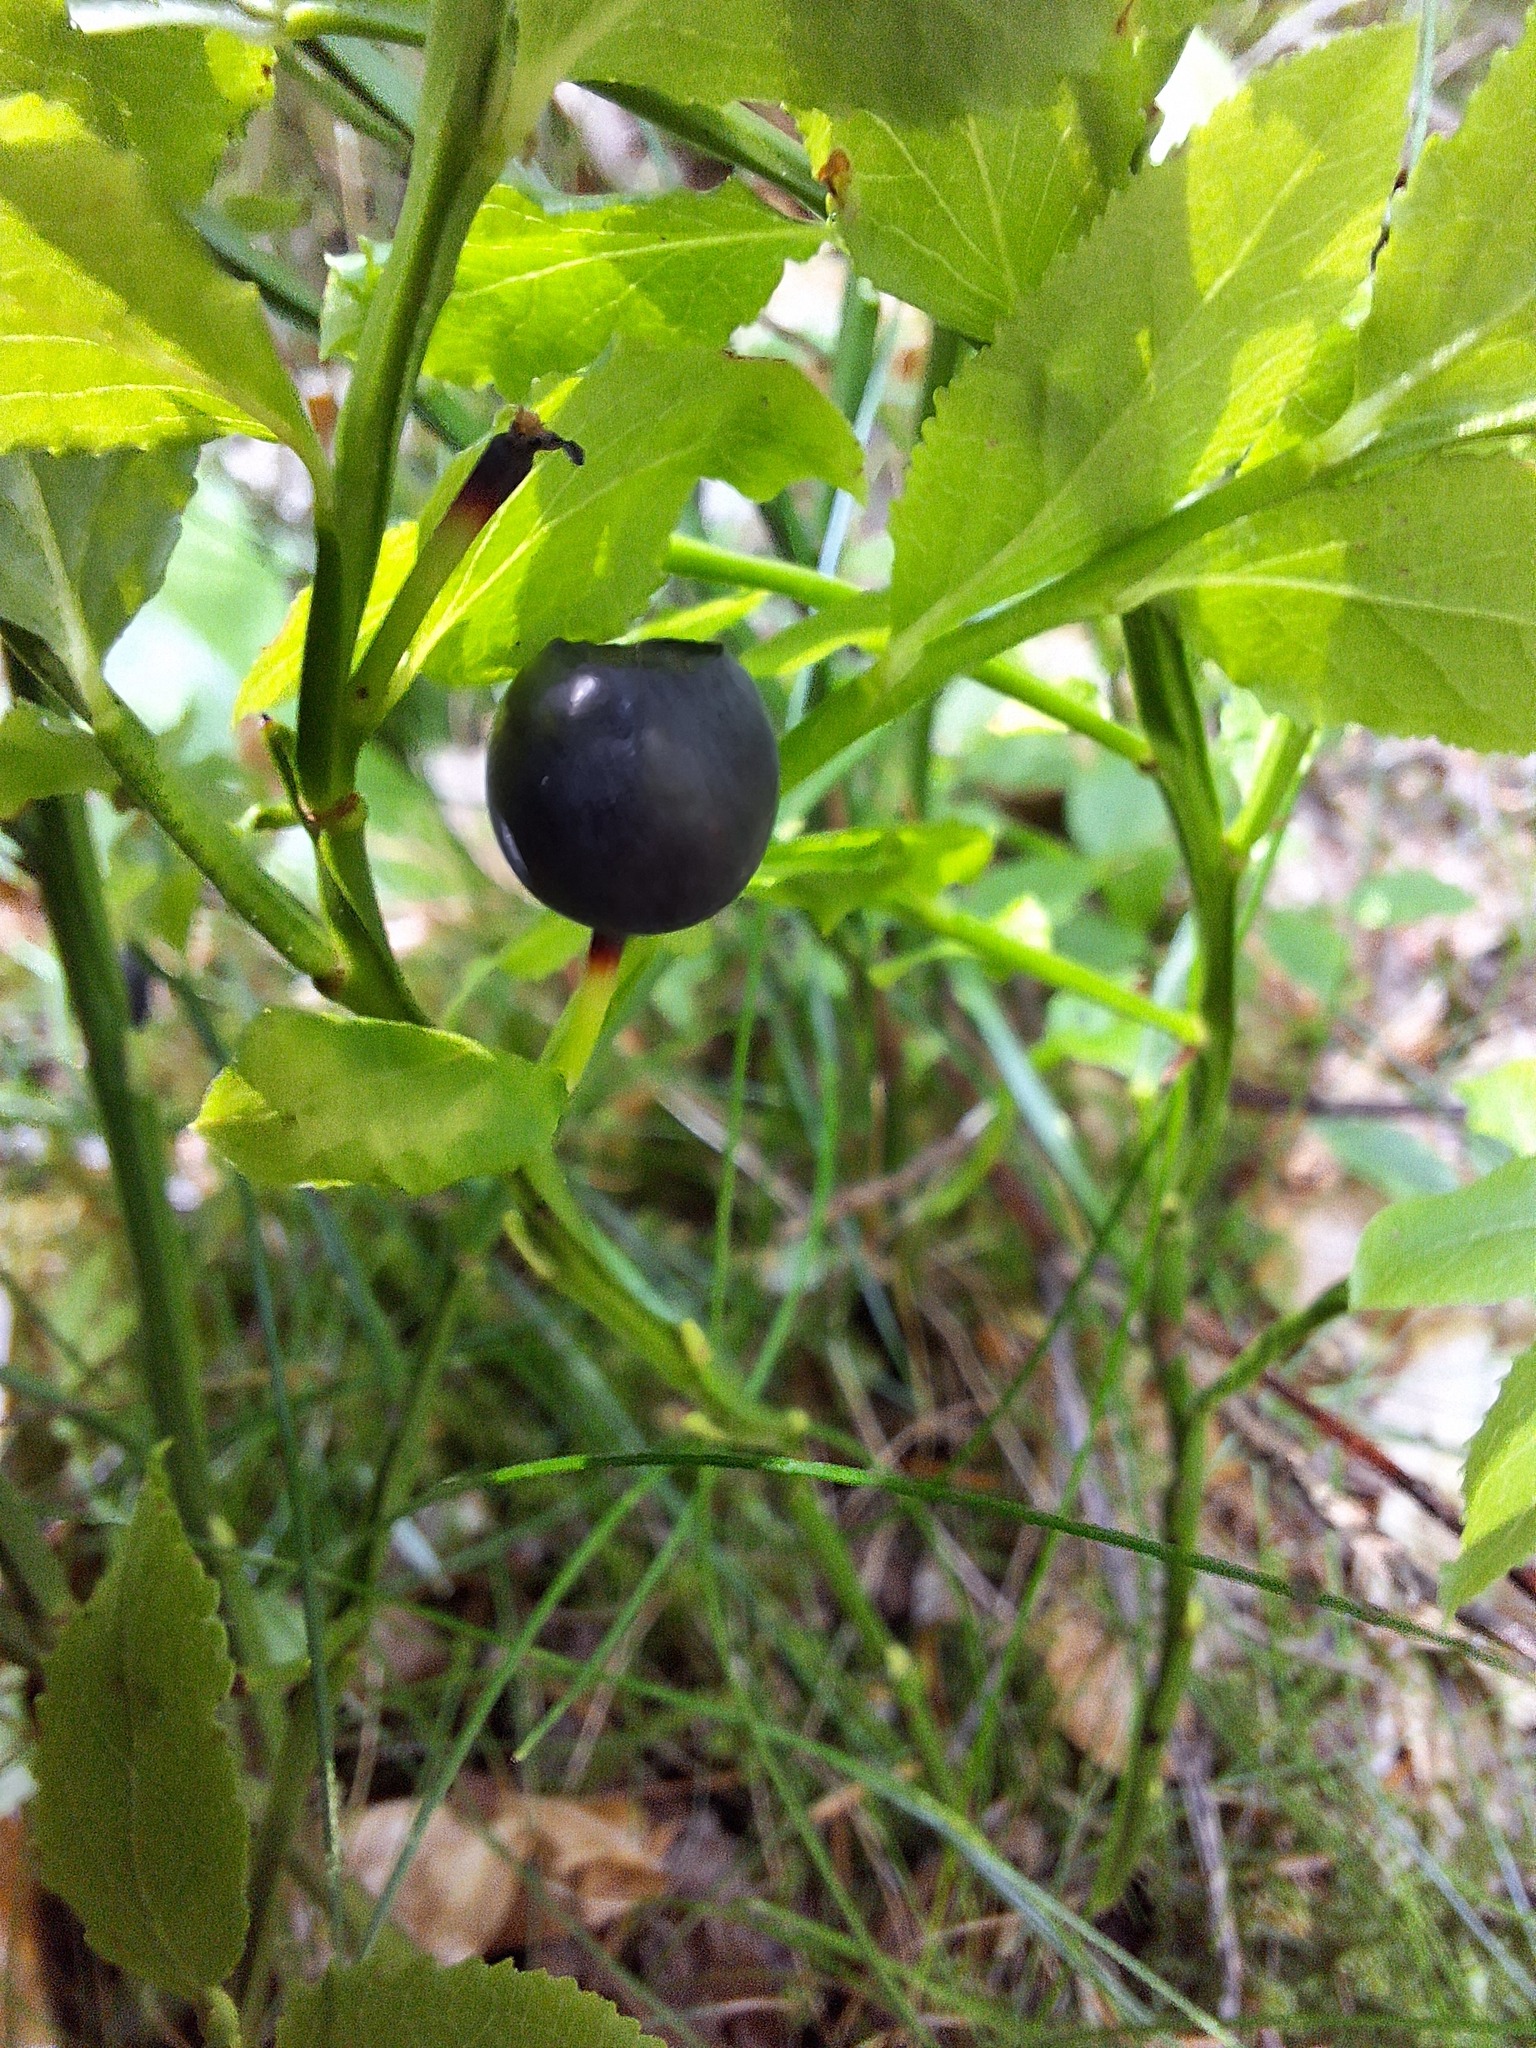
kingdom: Plantae
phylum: Tracheophyta
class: Magnoliopsida
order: Ericales
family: Ericaceae
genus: Vaccinium
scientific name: Vaccinium myrtillus
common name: Bilberry
